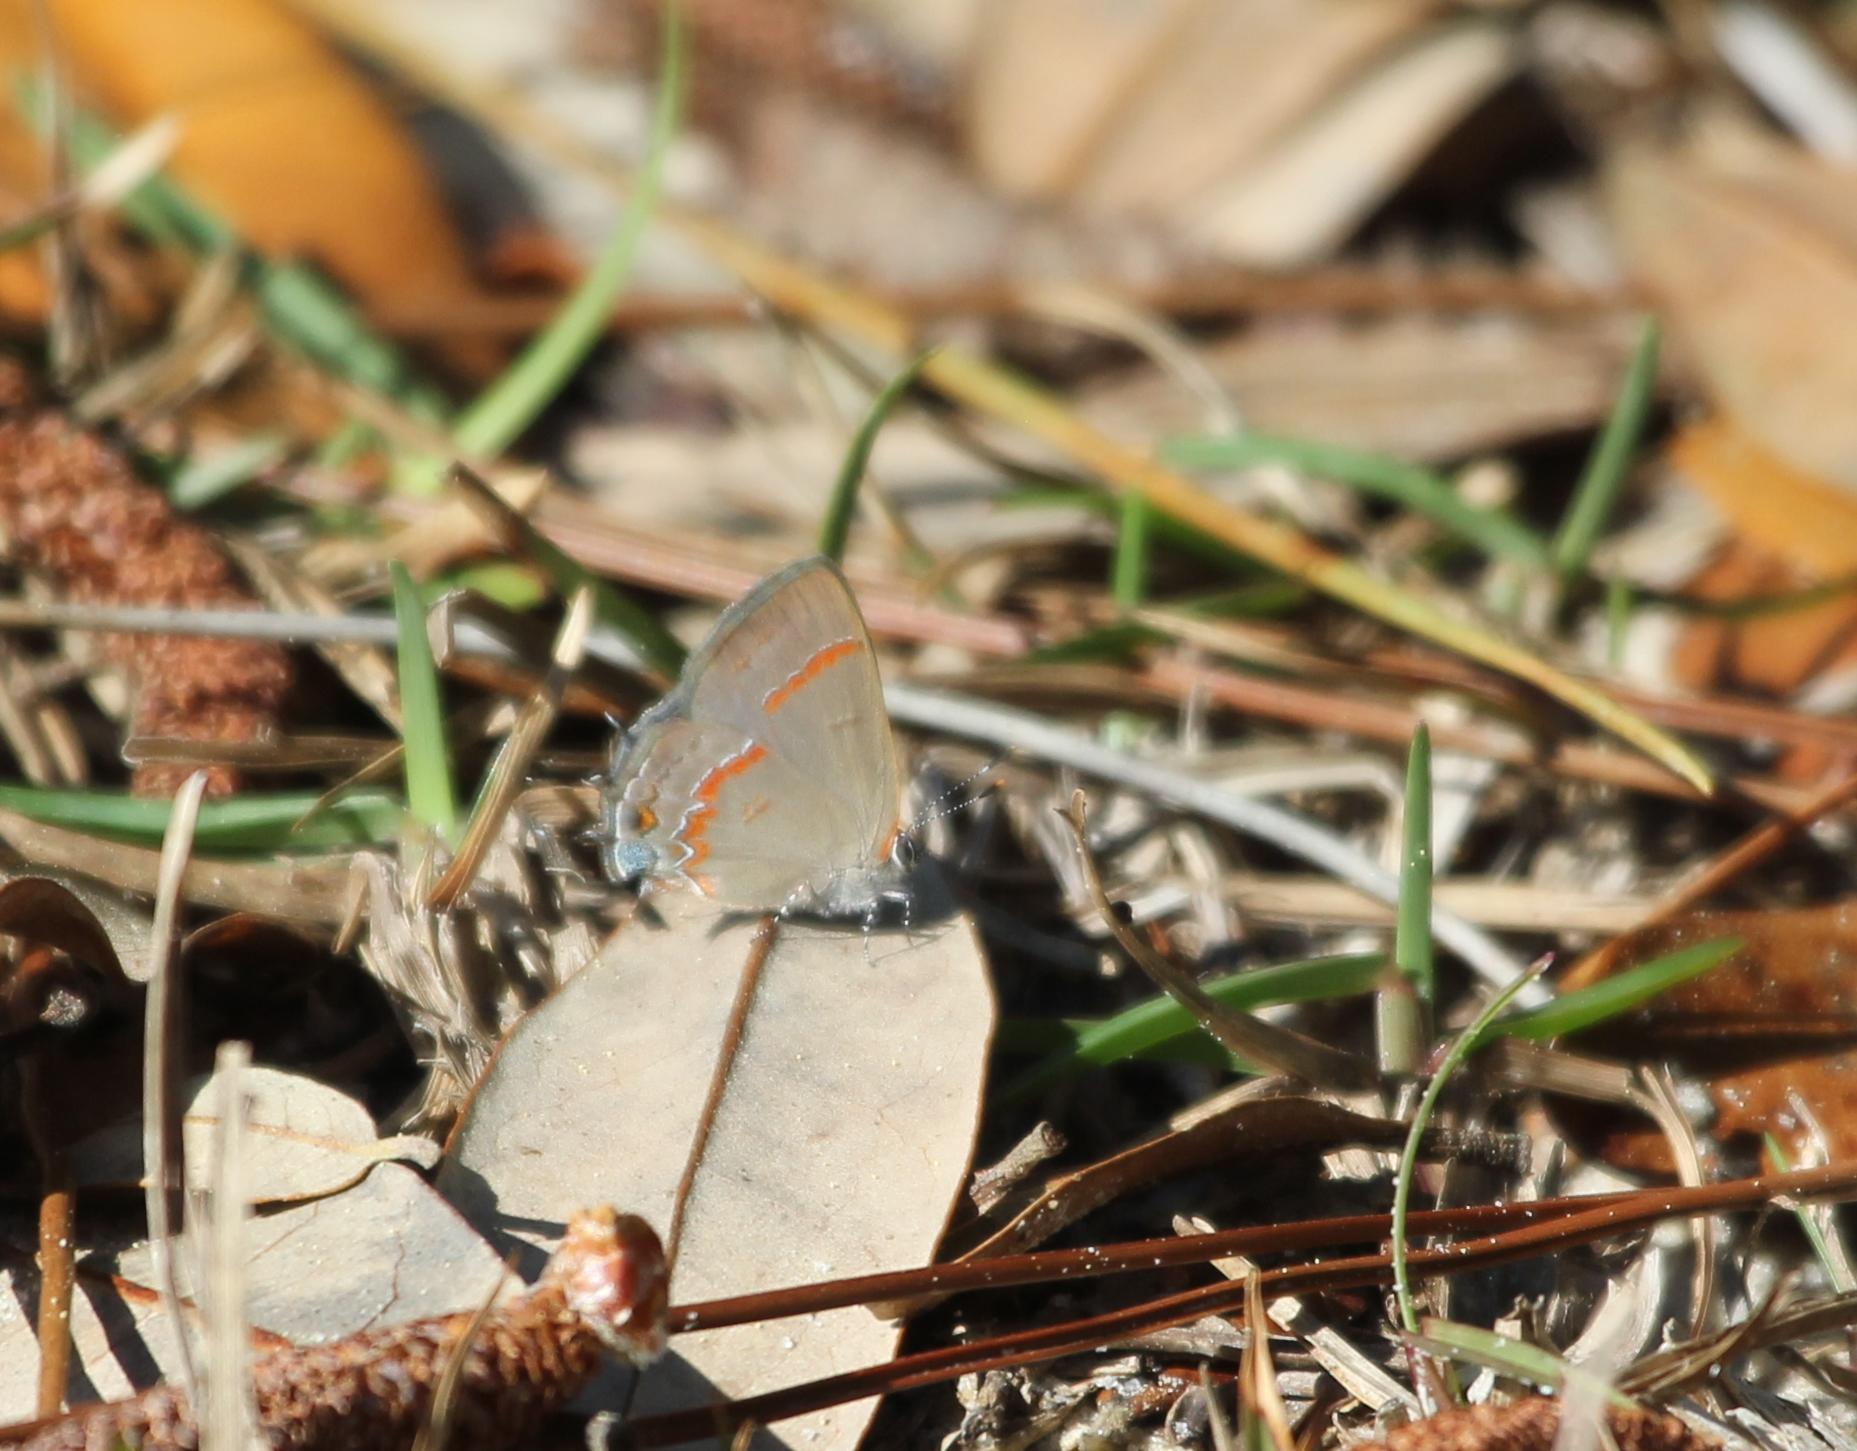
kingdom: Animalia
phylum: Arthropoda
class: Insecta
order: Lepidoptera
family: Lycaenidae
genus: Calycopis
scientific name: Calycopis cecrops
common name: Red-banded hairstreak
